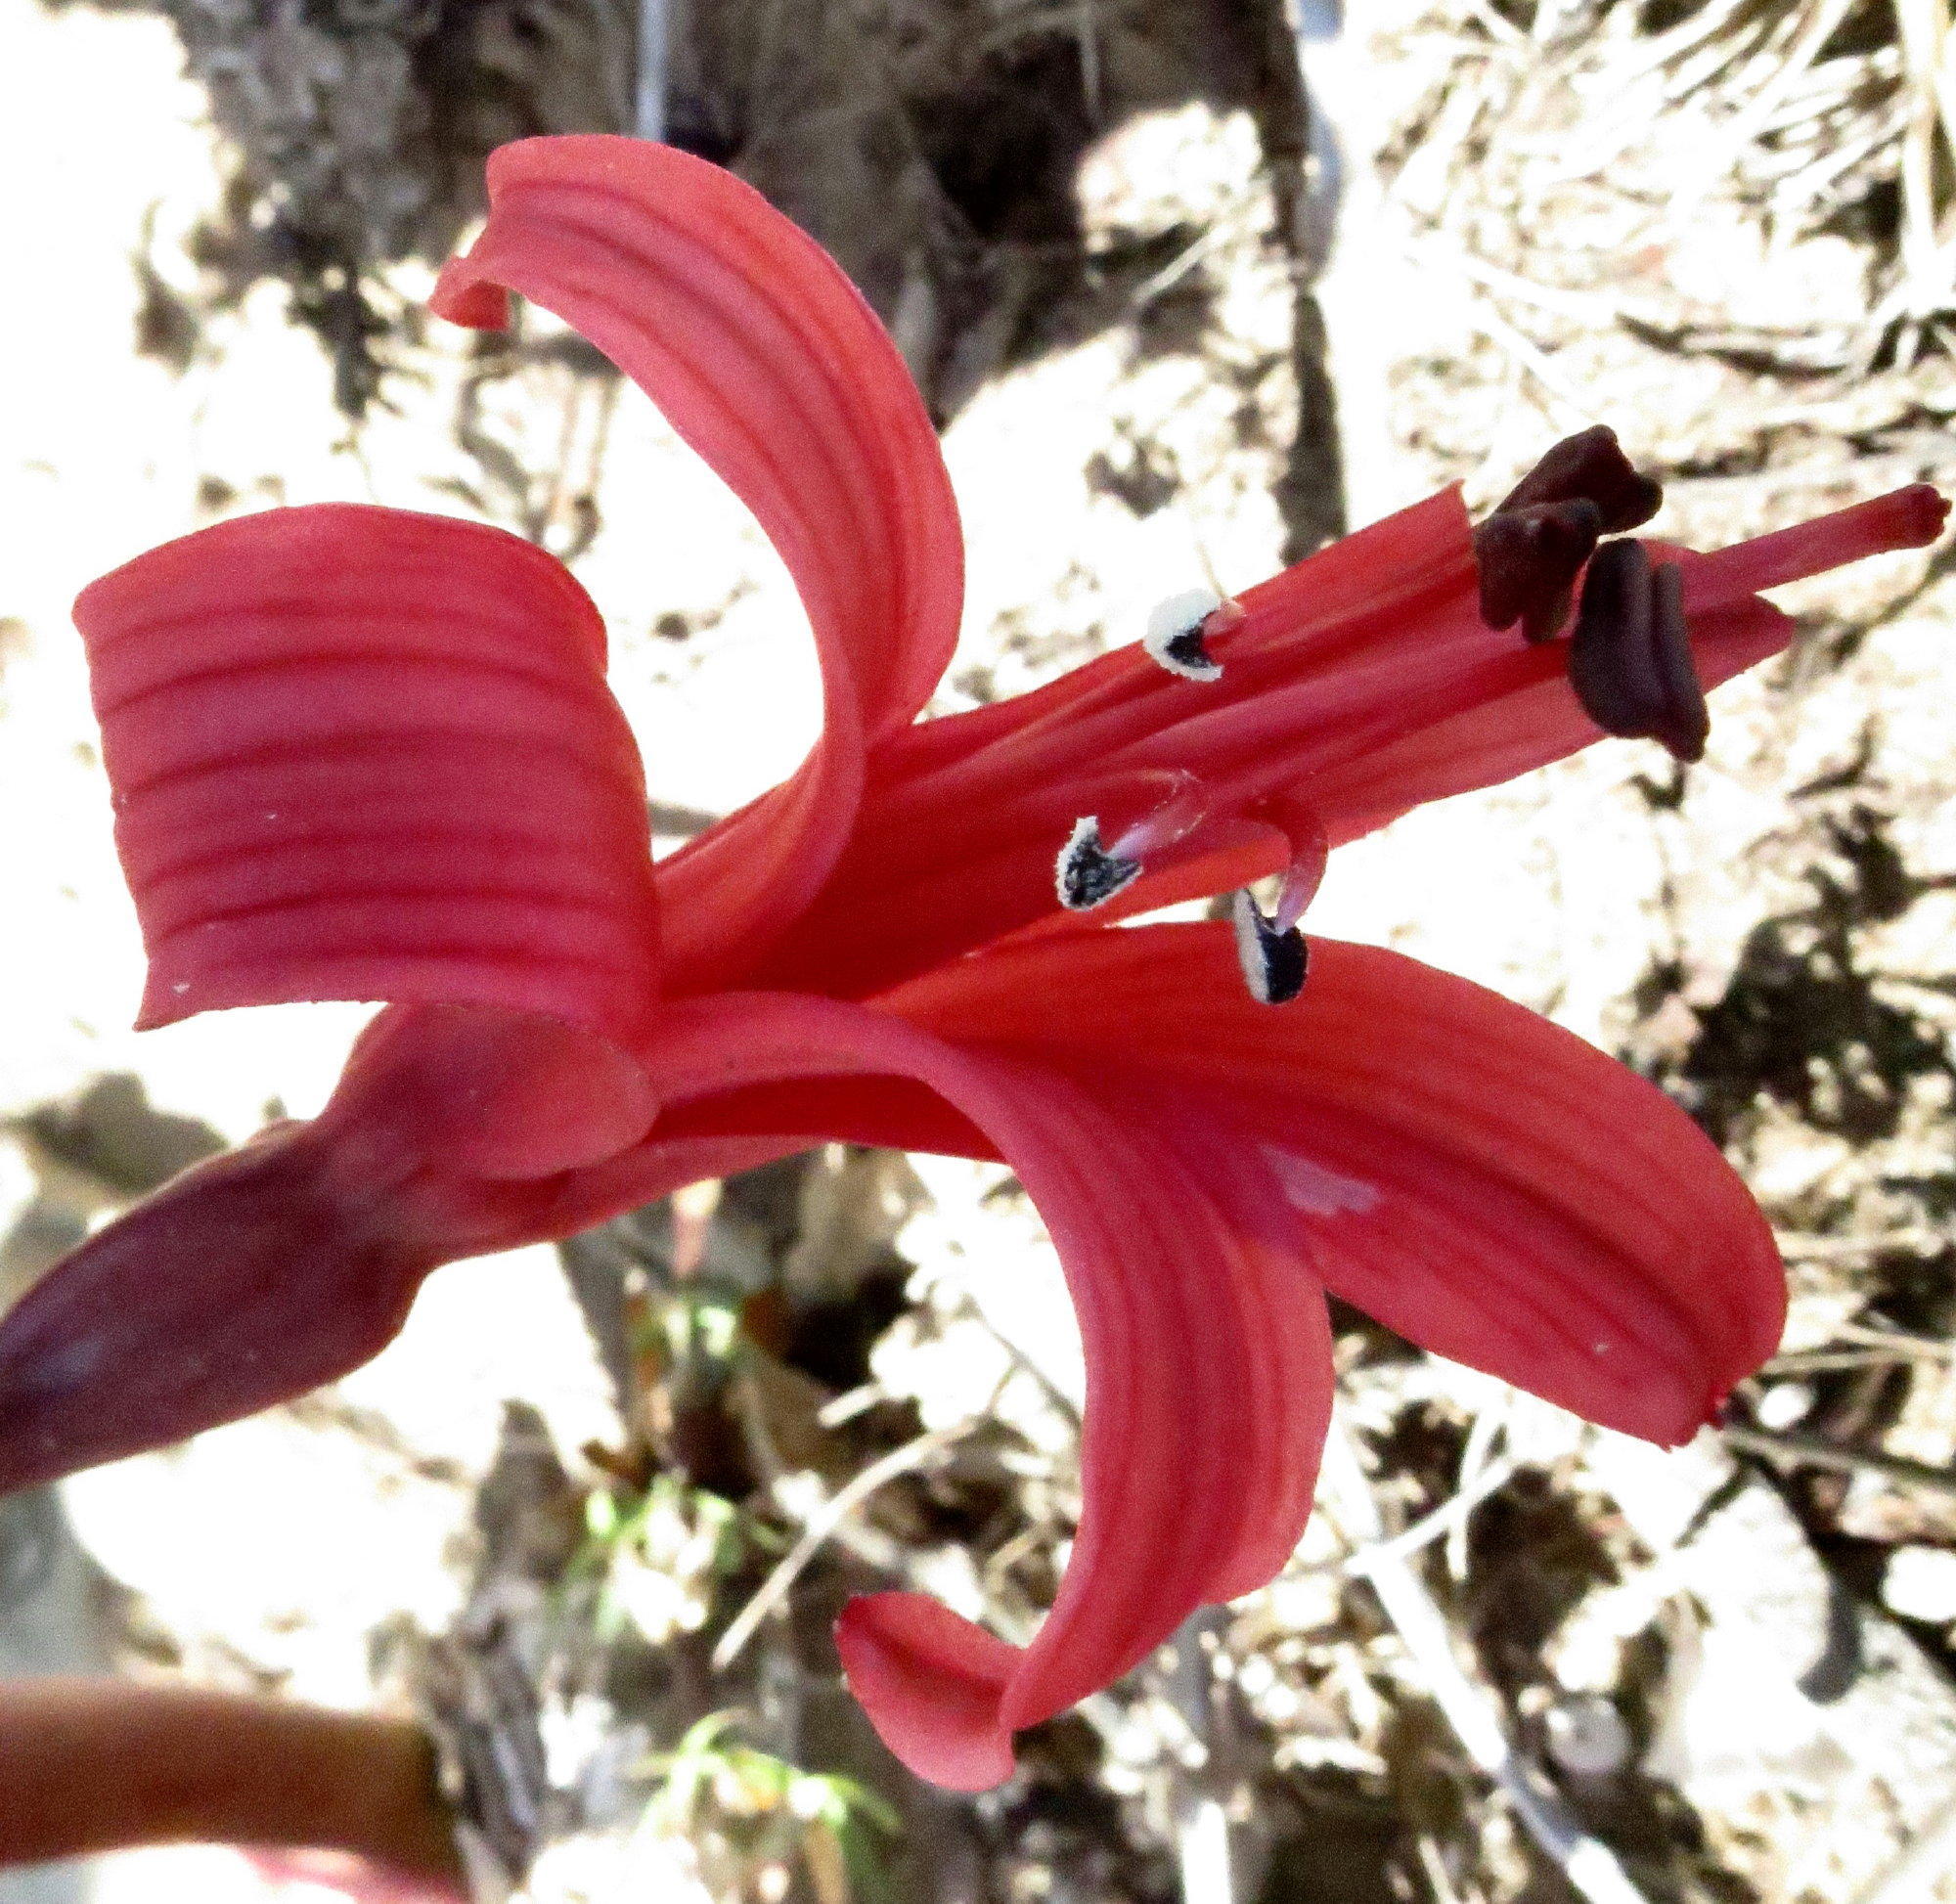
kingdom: Plantae
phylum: Tracheophyta
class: Liliopsida
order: Asparagales
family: Amaryllidaceae
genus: Brunsvigia
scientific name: Brunsvigia orientalis
